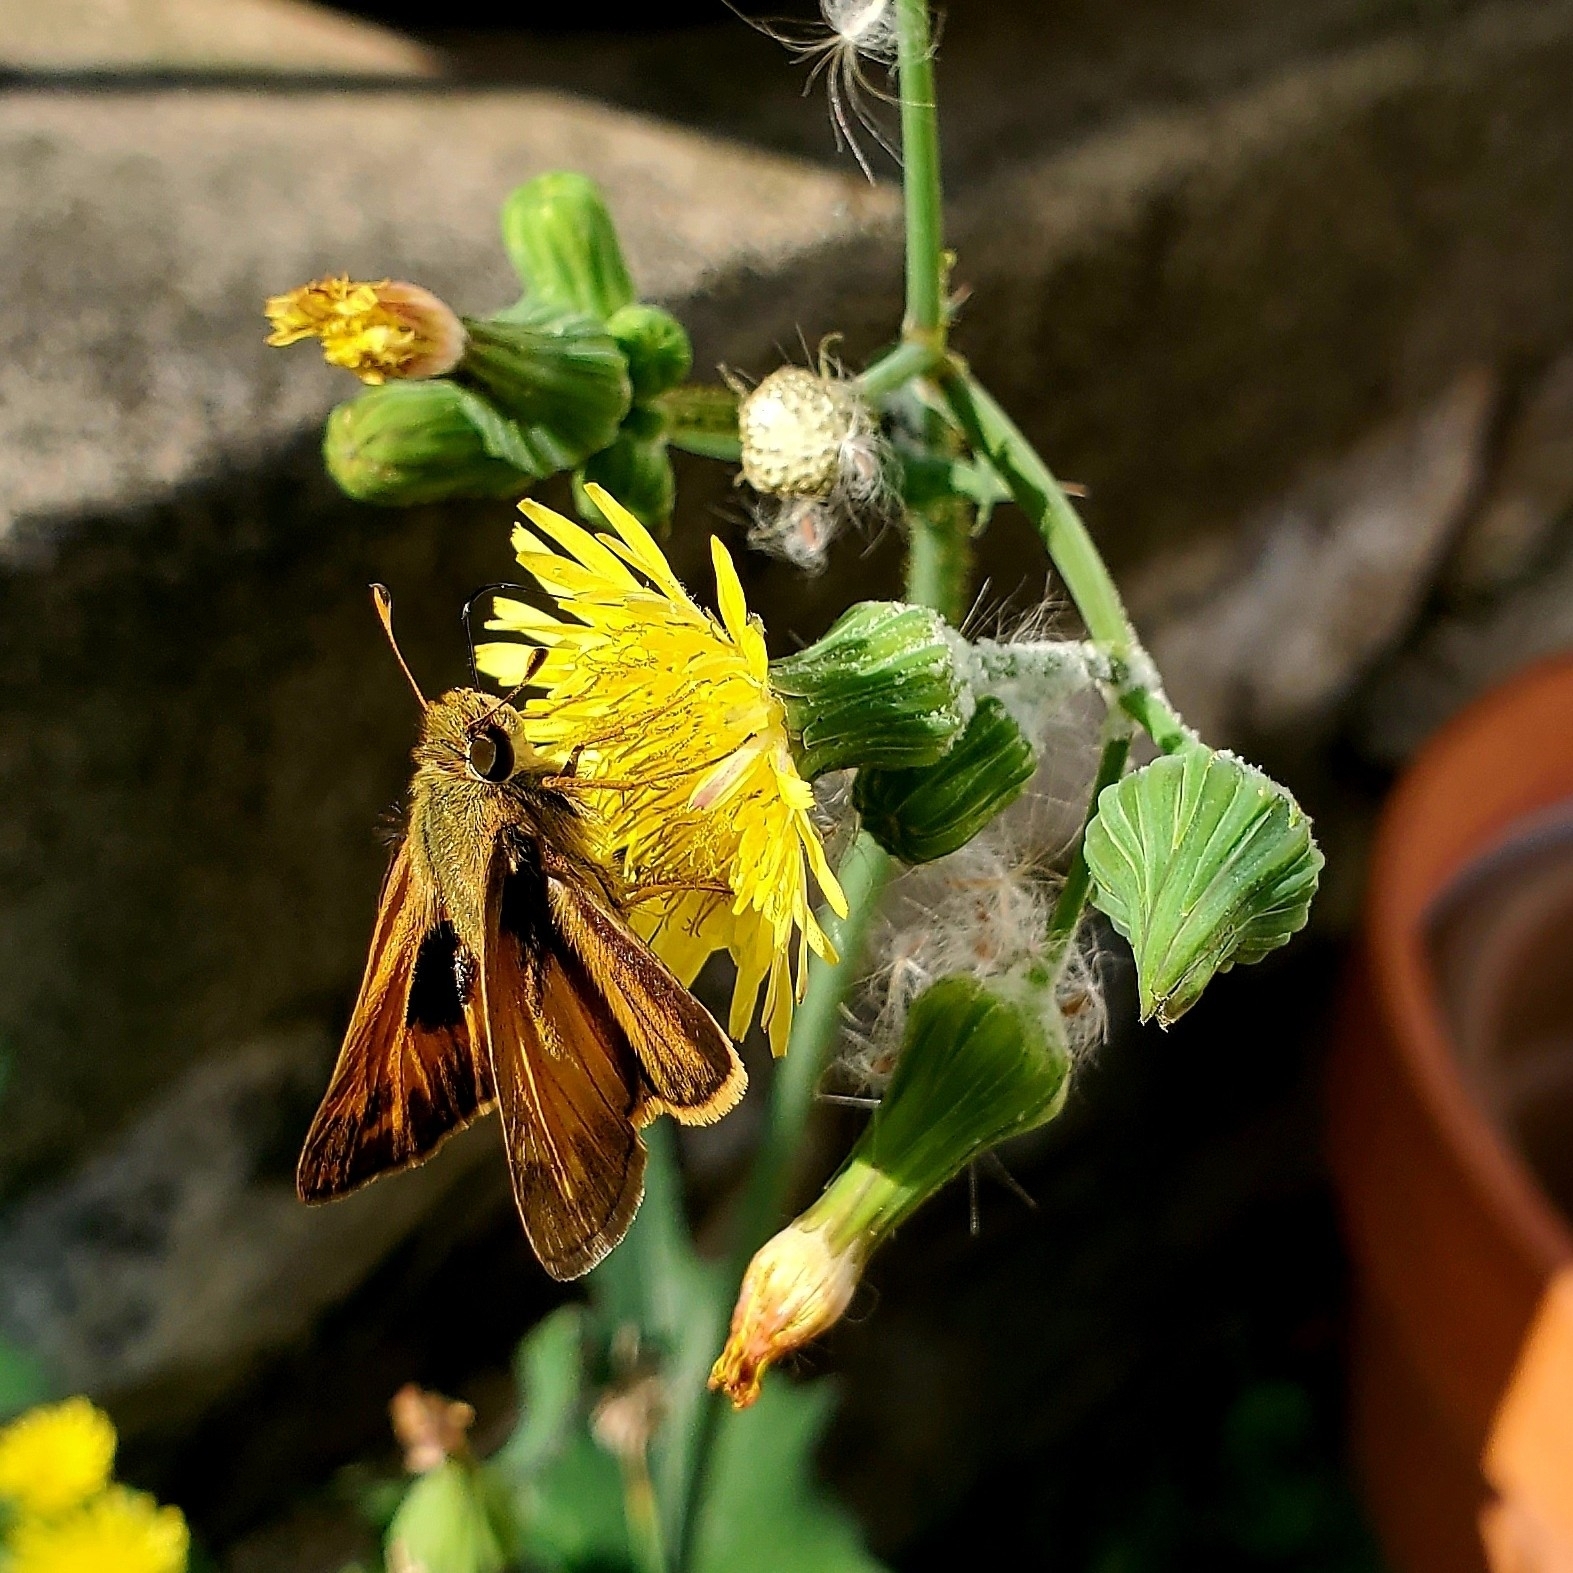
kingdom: Animalia
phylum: Arthropoda
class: Insecta
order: Lepidoptera
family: Hesperiidae
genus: Atalopedes
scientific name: Atalopedes
